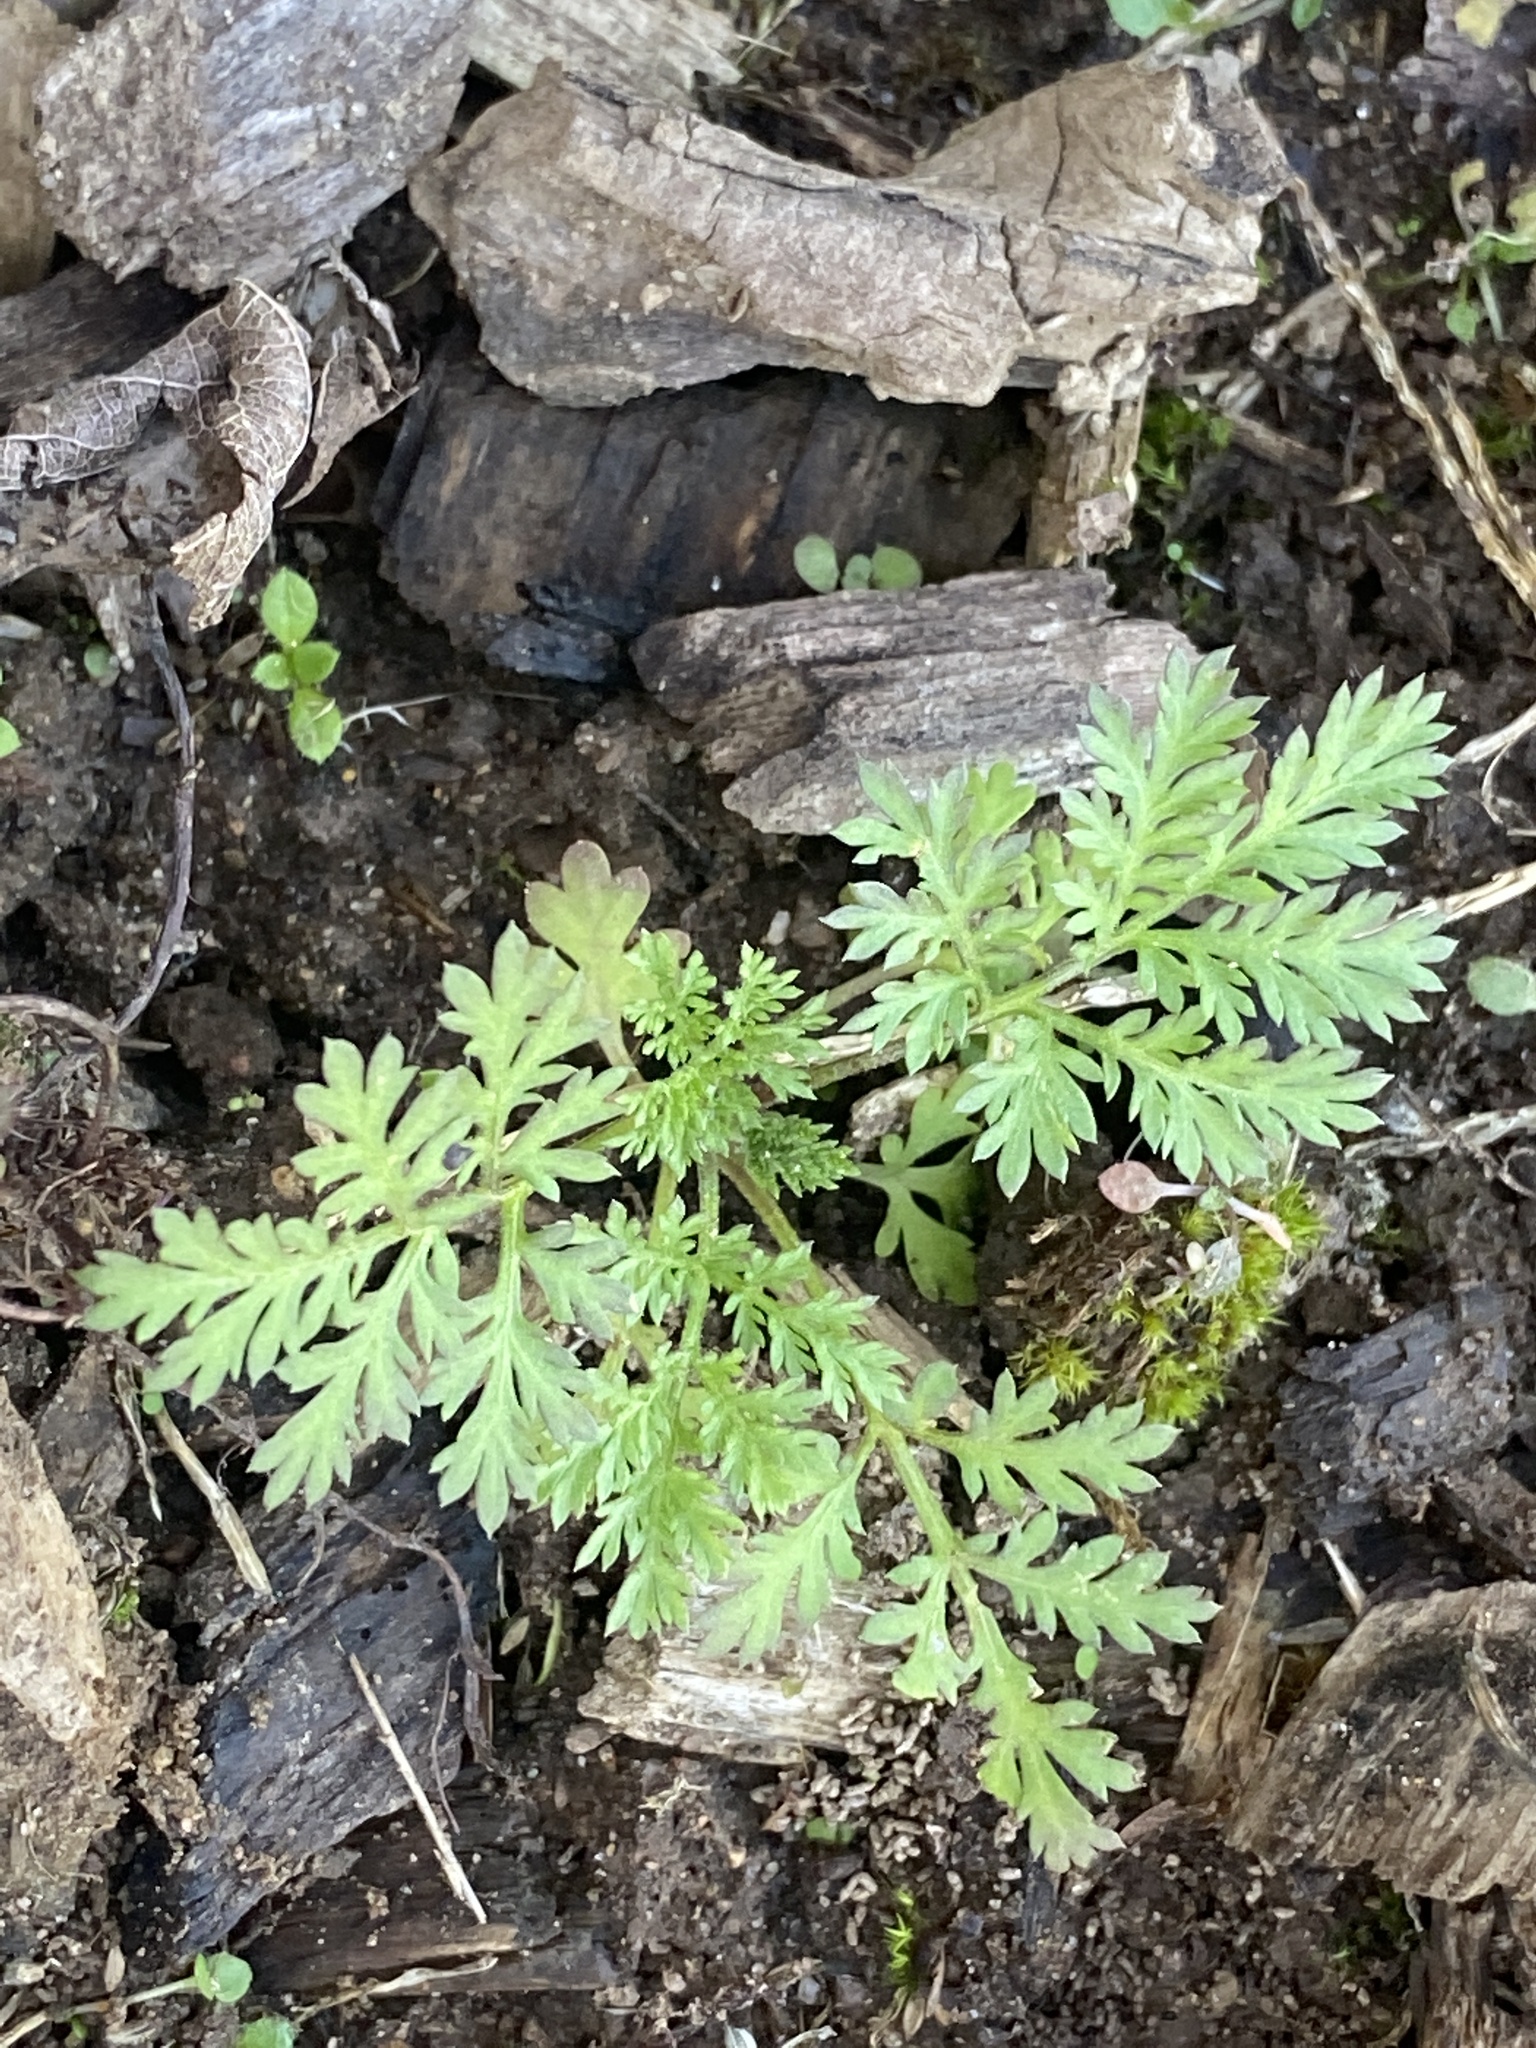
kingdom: Plantae
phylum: Tracheophyta
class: Magnoliopsida
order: Asterales
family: Asteraceae
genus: Artemisia
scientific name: Artemisia annua
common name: Sweet sagewort
